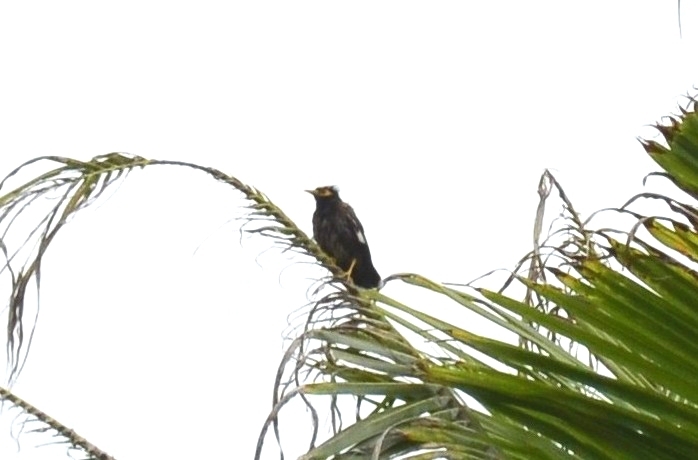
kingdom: Animalia
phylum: Chordata
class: Aves
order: Passeriformes
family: Sturnidae
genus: Acridotheres
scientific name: Acridotheres tristis
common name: Common myna
